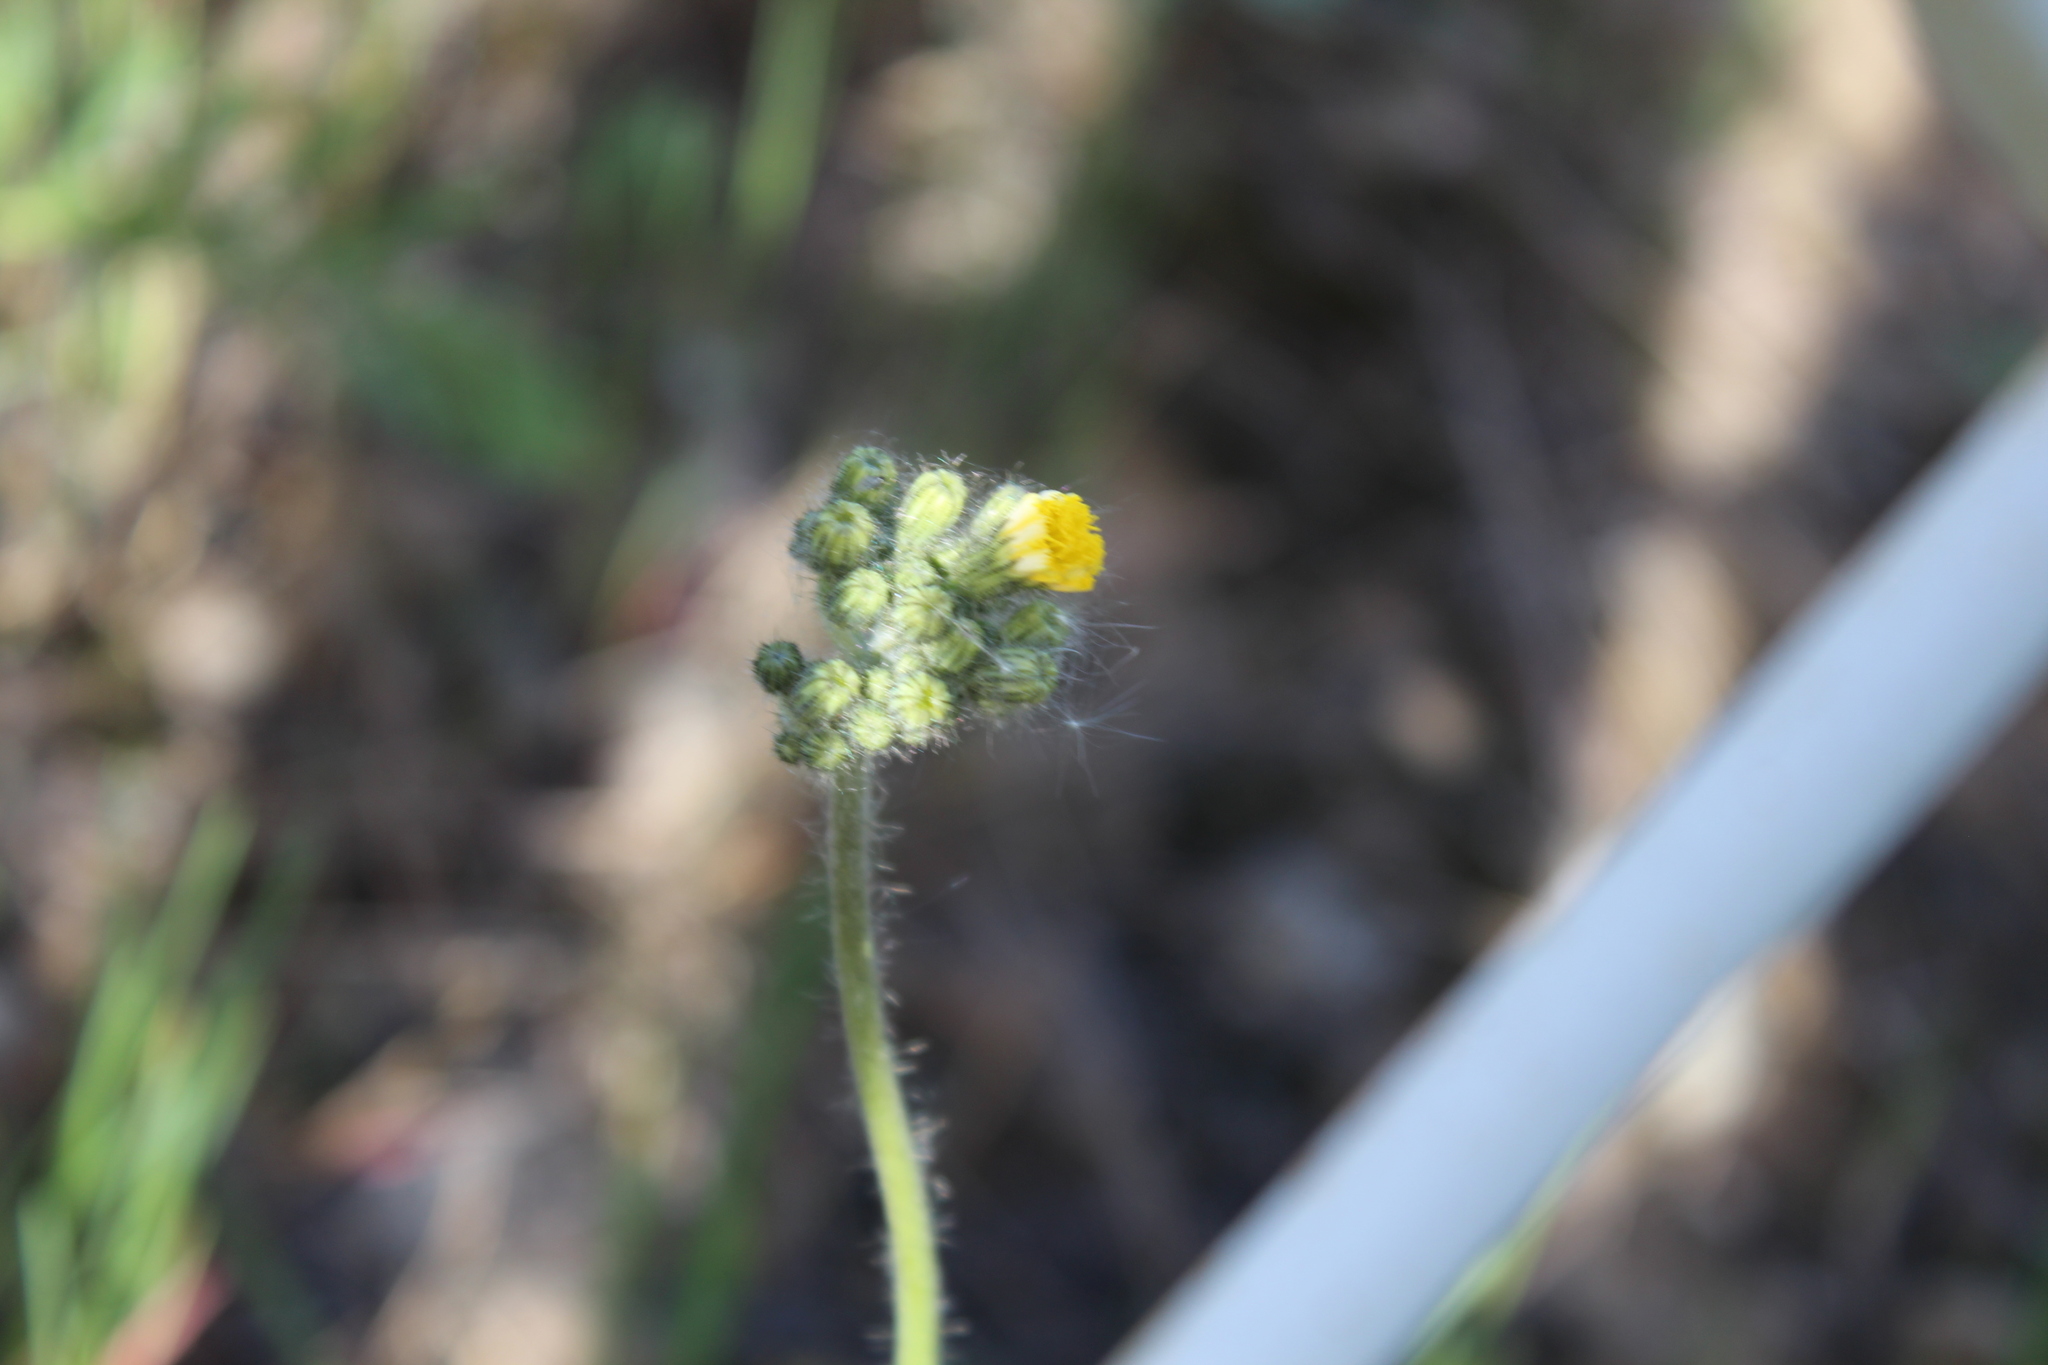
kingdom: Plantae
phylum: Tracheophyta
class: Magnoliopsida
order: Asterales
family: Asteraceae
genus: Pilosella
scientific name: Pilosella
